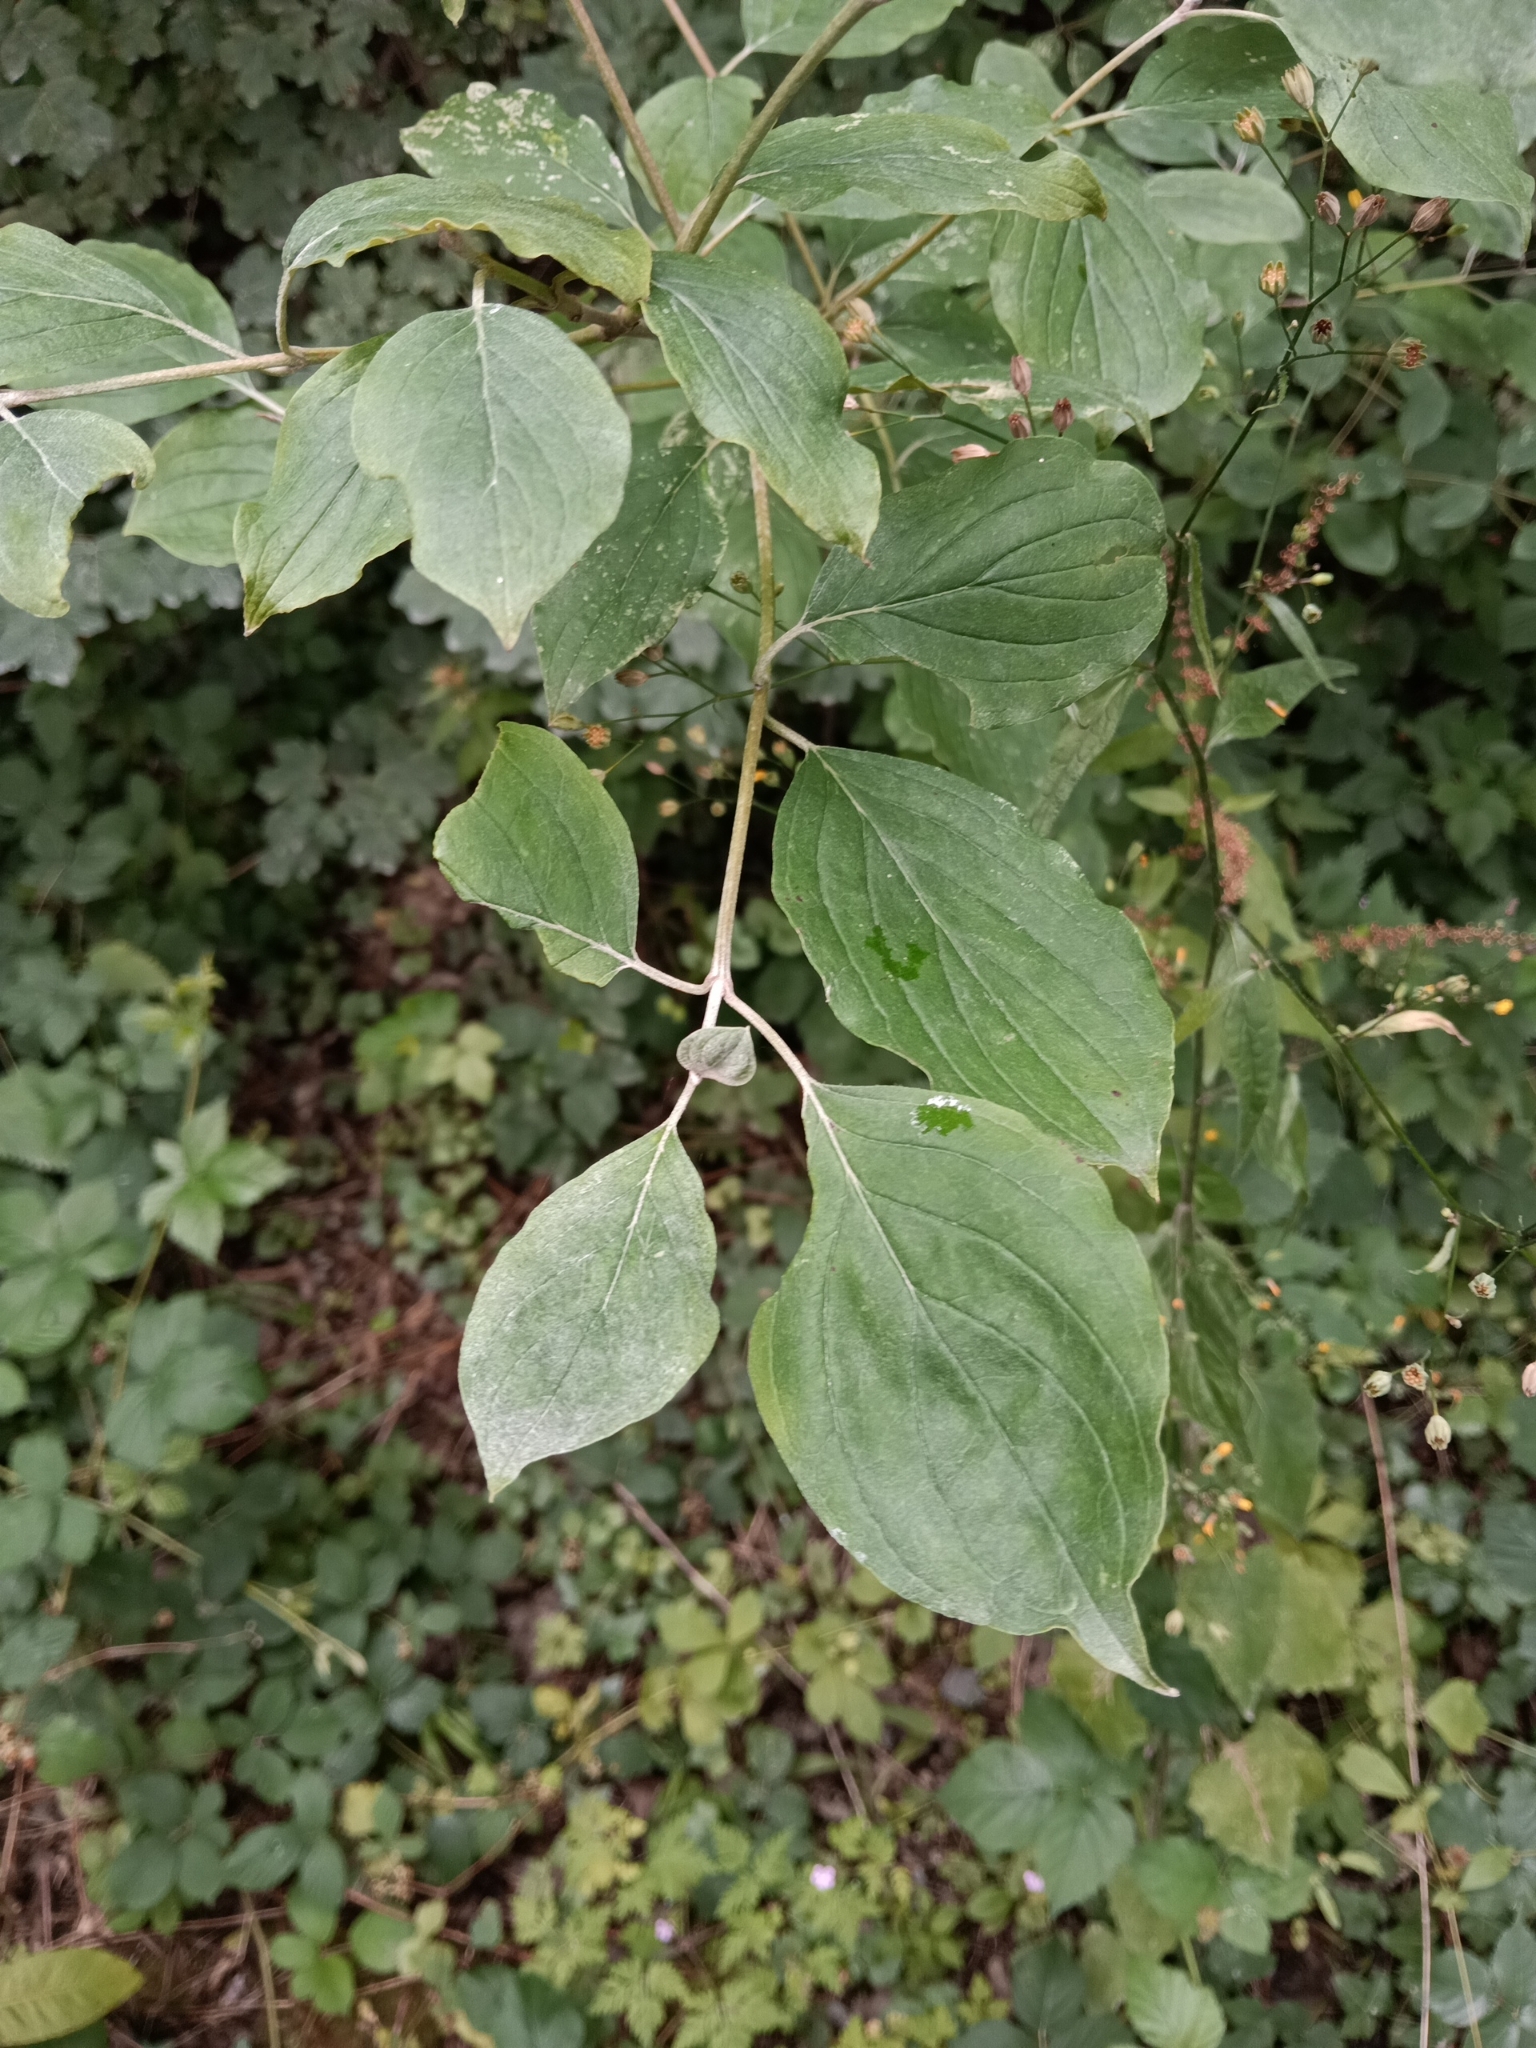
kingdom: Plantae
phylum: Tracheophyta
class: Magnoliopsida
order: Cornales
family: Cornaceae
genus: Cornus
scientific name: Cornus sanguinea
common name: Dogwood
